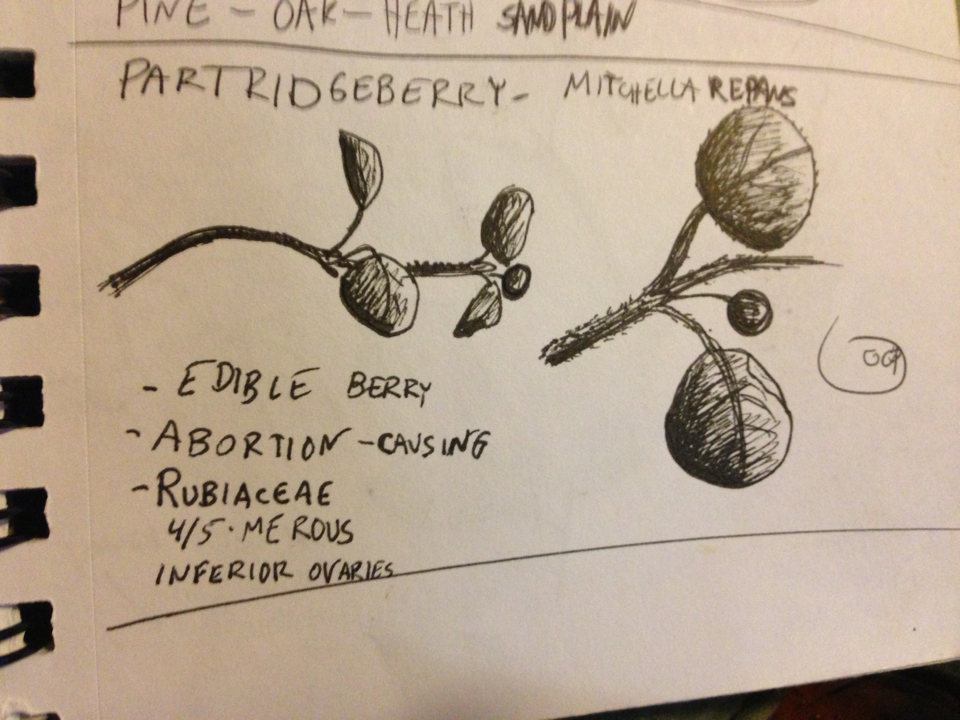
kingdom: Plantae
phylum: Tracheophyta
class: Magnoliopsida
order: Gentianales
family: Rubiaceae
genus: Mitchella
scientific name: Mitchella repens
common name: Partridge-berry
